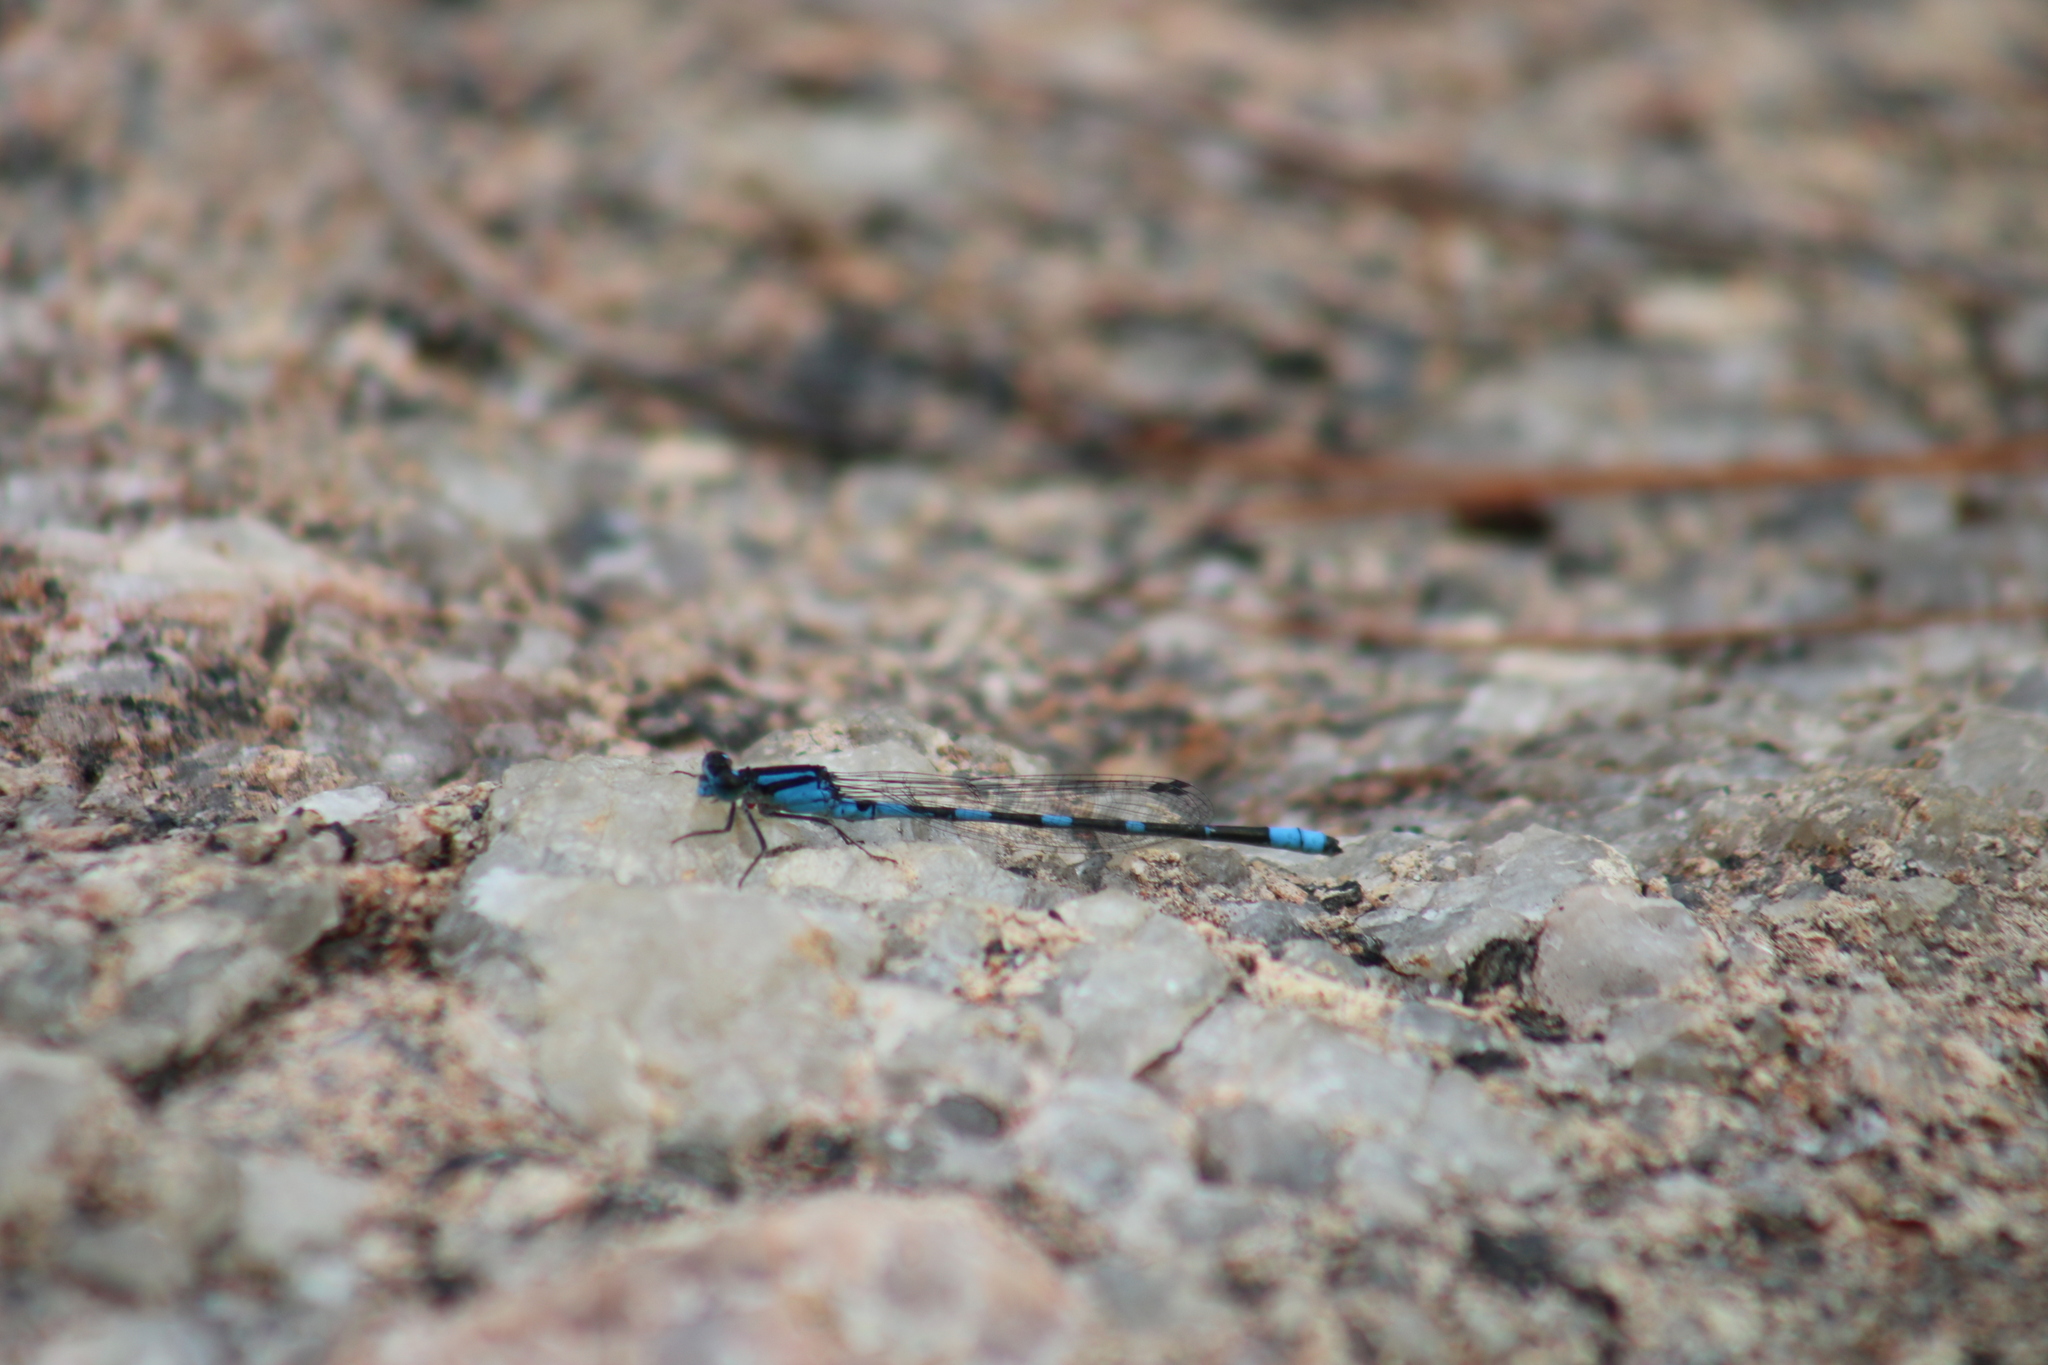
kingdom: Animalia
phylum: Arthropoda
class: Insecta
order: Odonata
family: Coenagrionidae
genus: Enallagma
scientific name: Enallagma carunculatum
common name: Tule bluet
